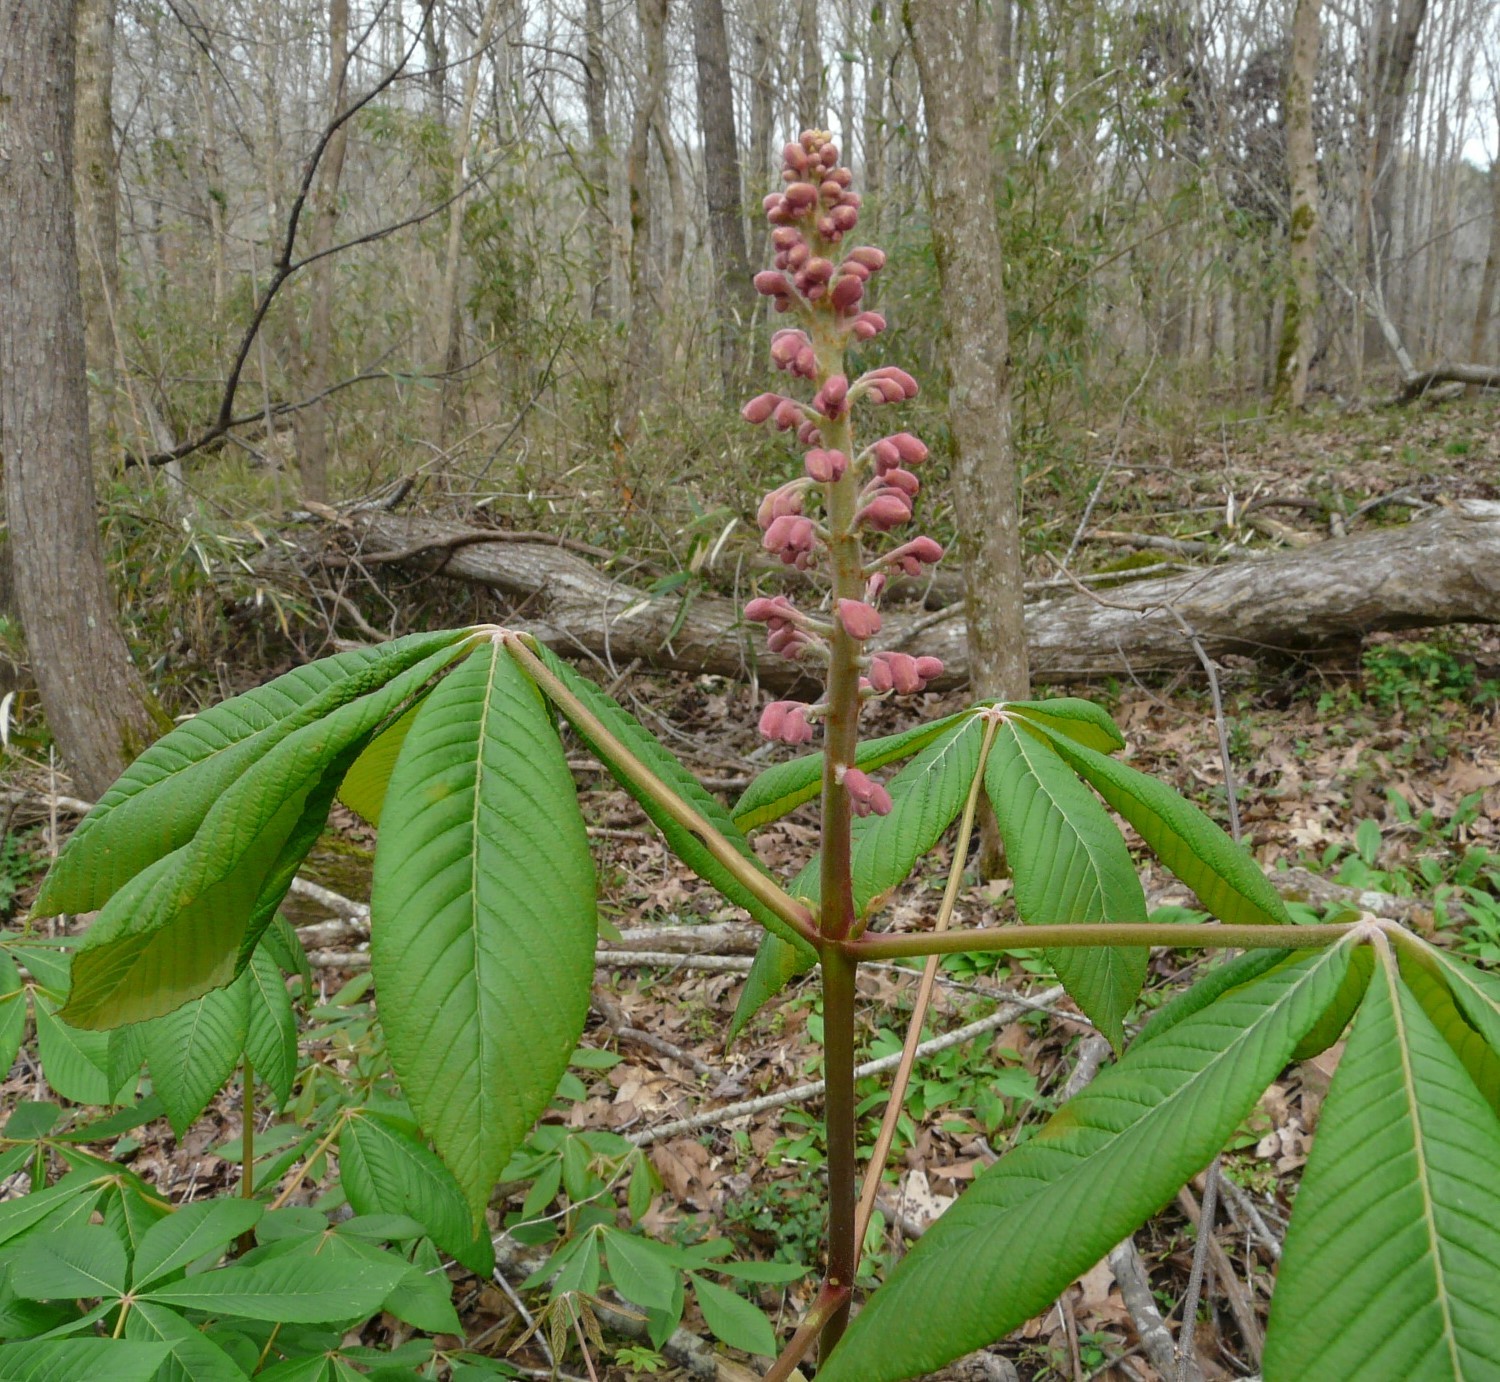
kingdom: Plantae
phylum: Tracheophyta
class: Magnoliopsida
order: Sapindales
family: Sapindaceae
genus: Aesculus
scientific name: Aesculus pavia
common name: Red buckeye
